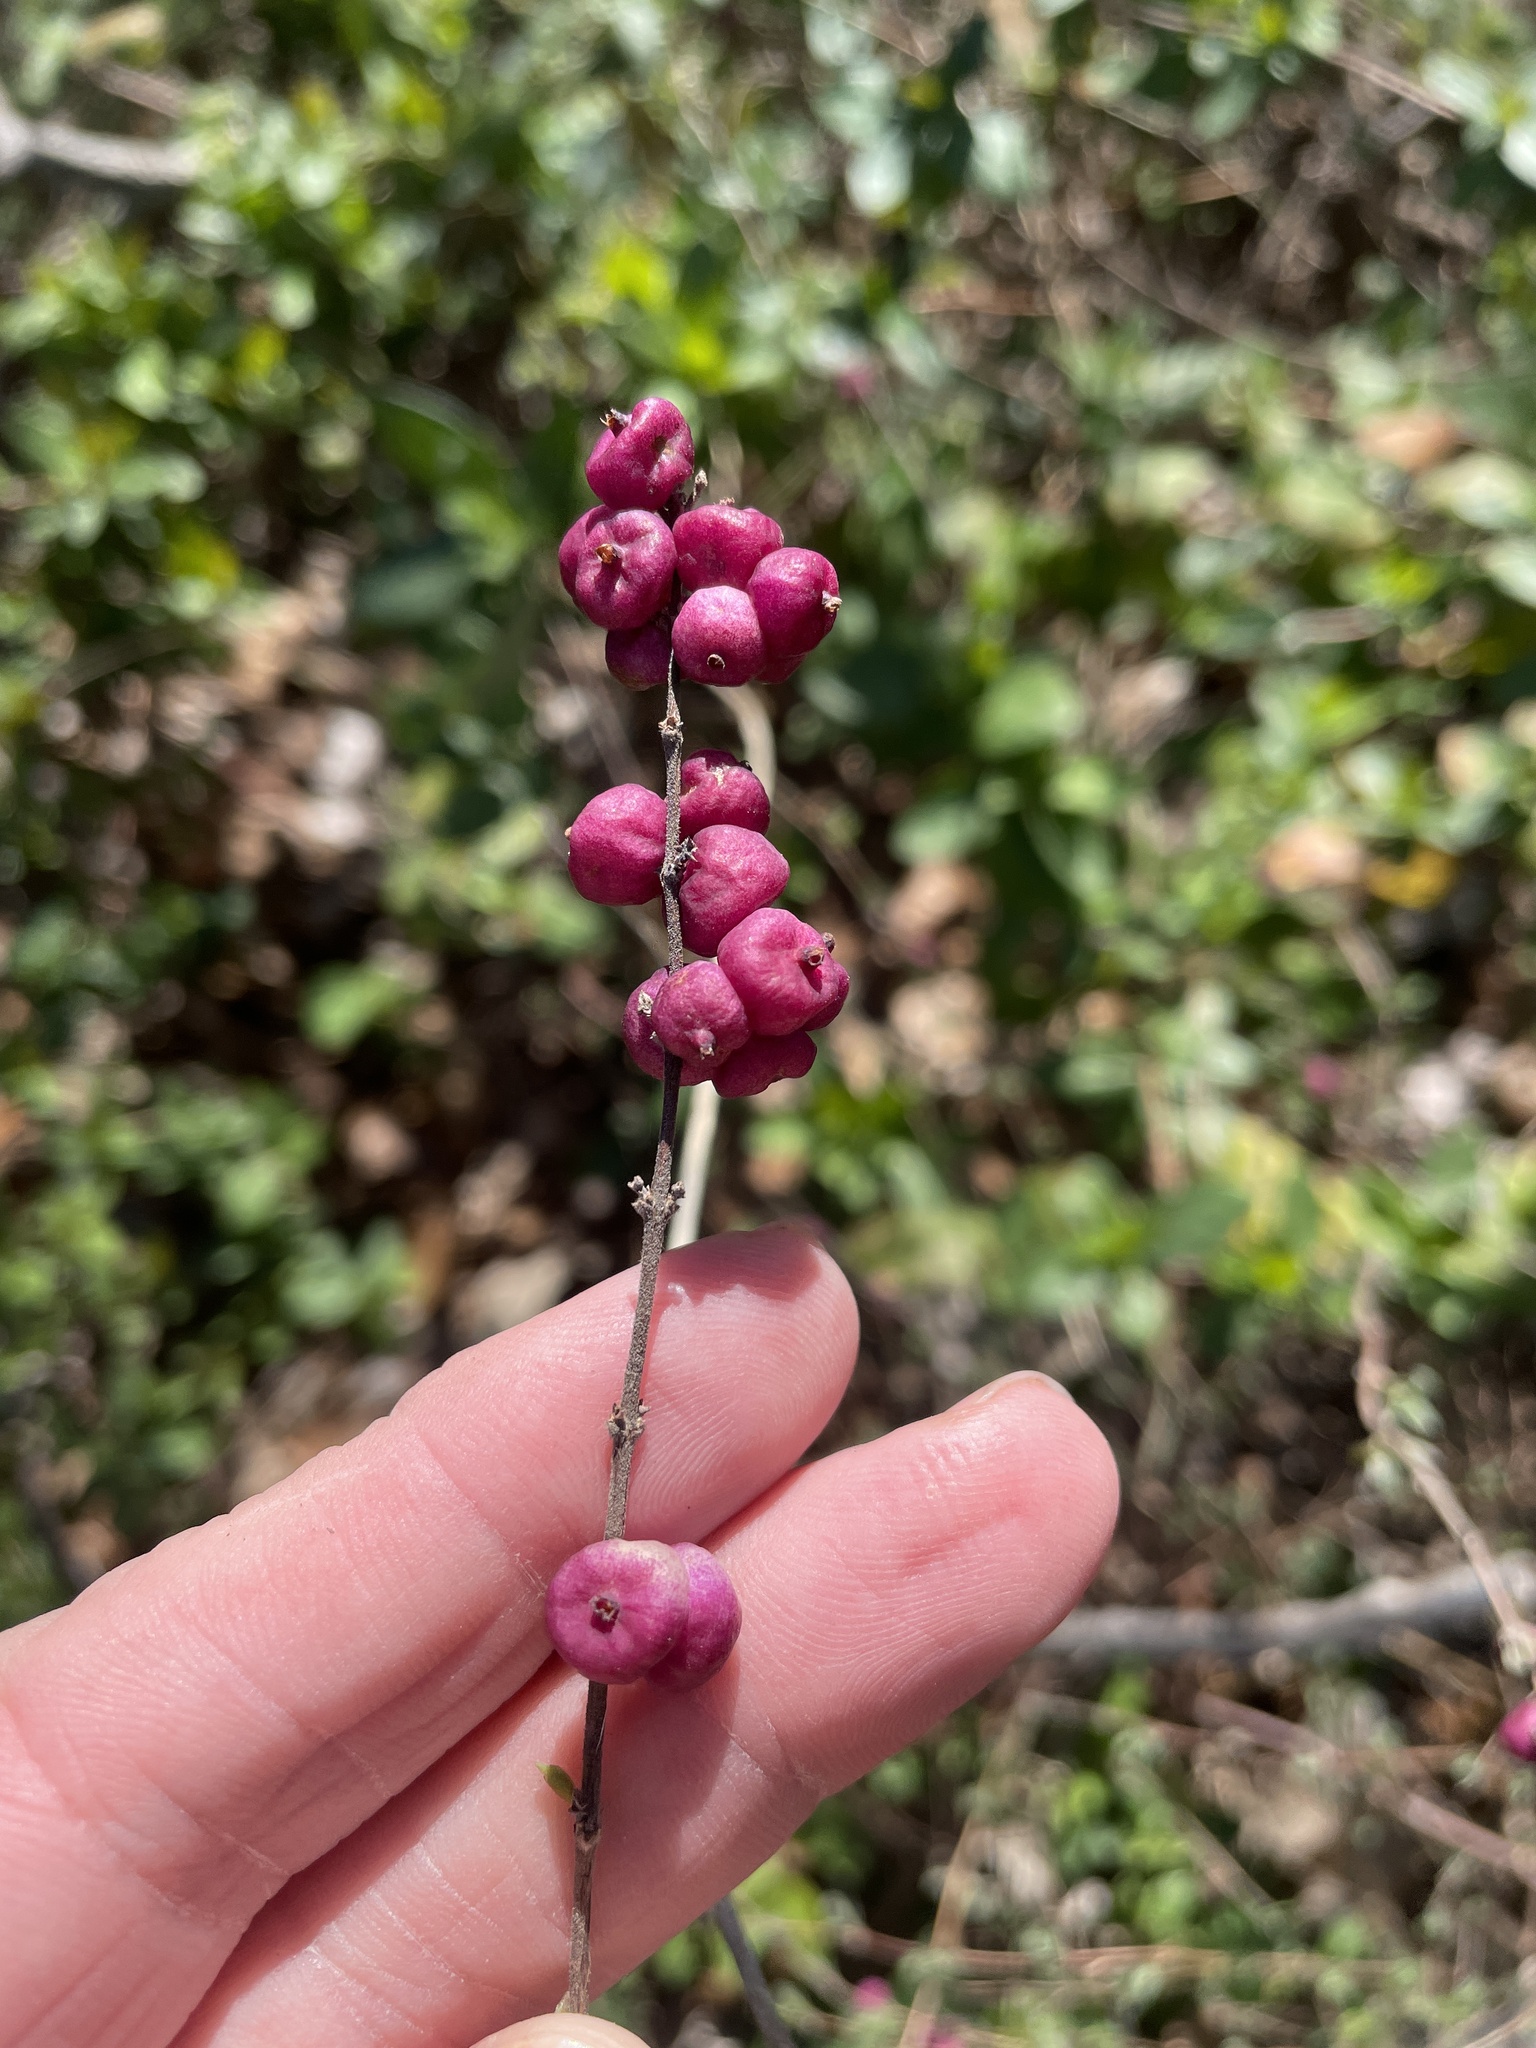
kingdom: Plantae
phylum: Tracheophyta
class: Magnoliopsida
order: Dipsacales
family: Caprifoliaceae
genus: Symphoricarpos
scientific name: Symphoricarpos orbiculatus
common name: Coralberry
